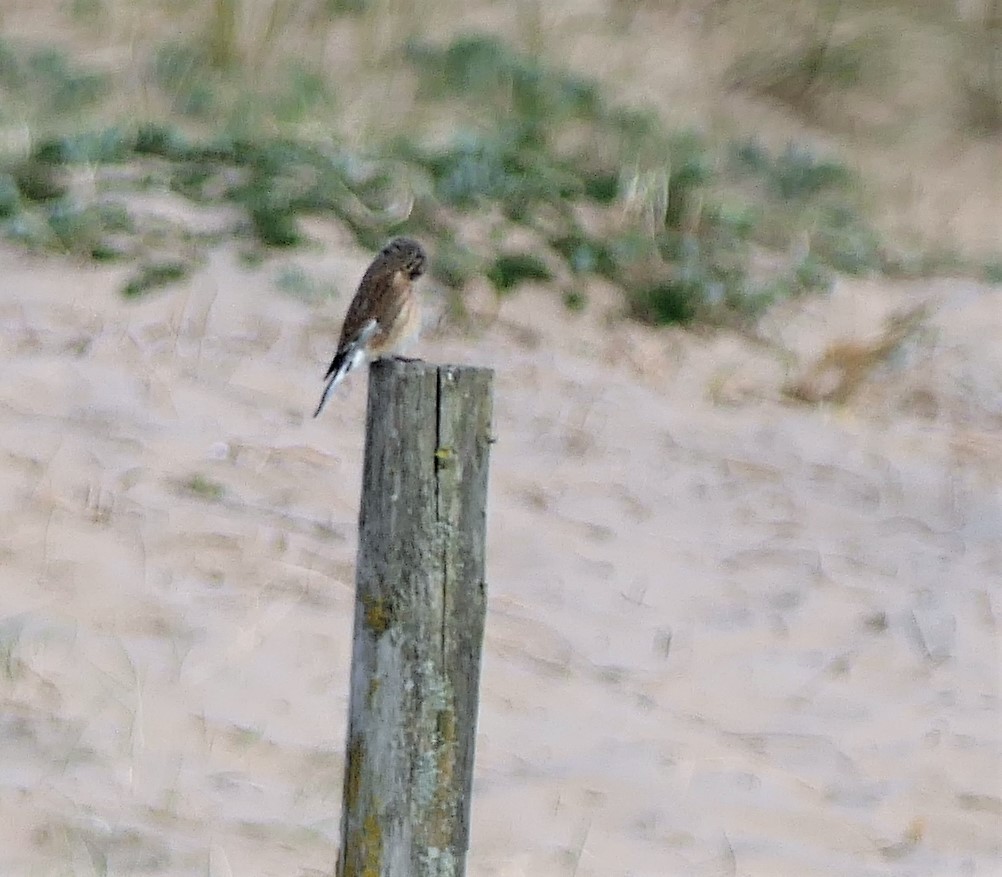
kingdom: Animalia
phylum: Chordata
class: Aves
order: Passeriformes
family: Fringillidae
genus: Linaria
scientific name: Linaria cannabina
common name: Common linnet
